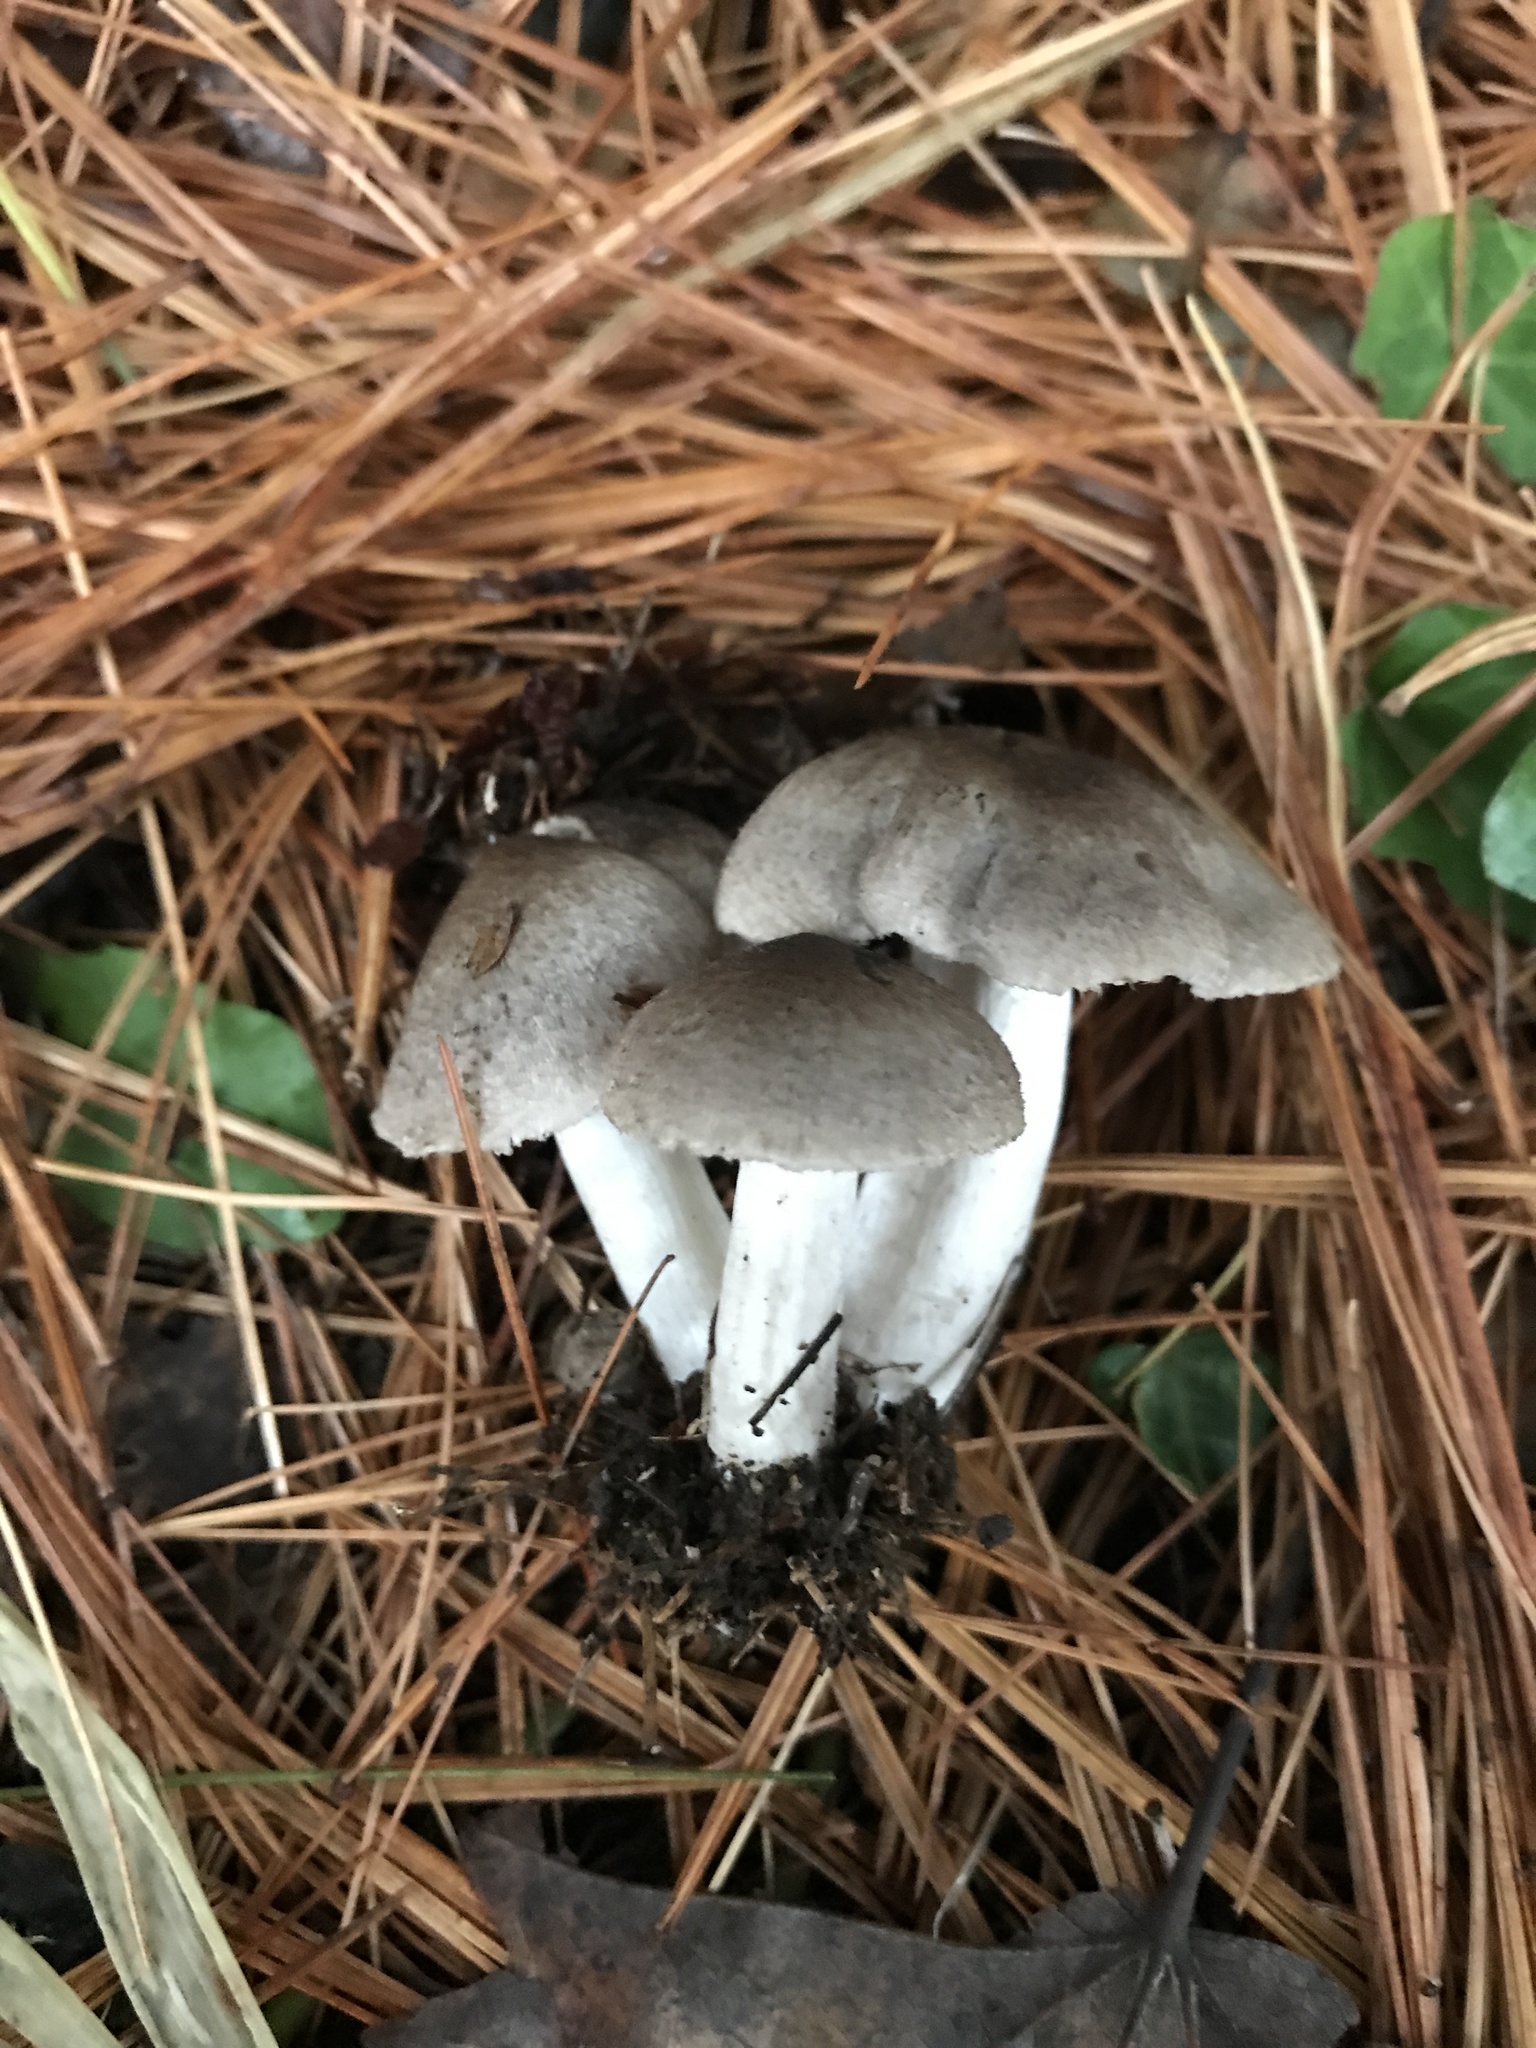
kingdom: Fungi
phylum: Basidiomycota
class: Agaricomycetes
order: Agaricales
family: Tricholomataceae
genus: Tricholoma
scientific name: Tricholoma terreum
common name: Grey knight
